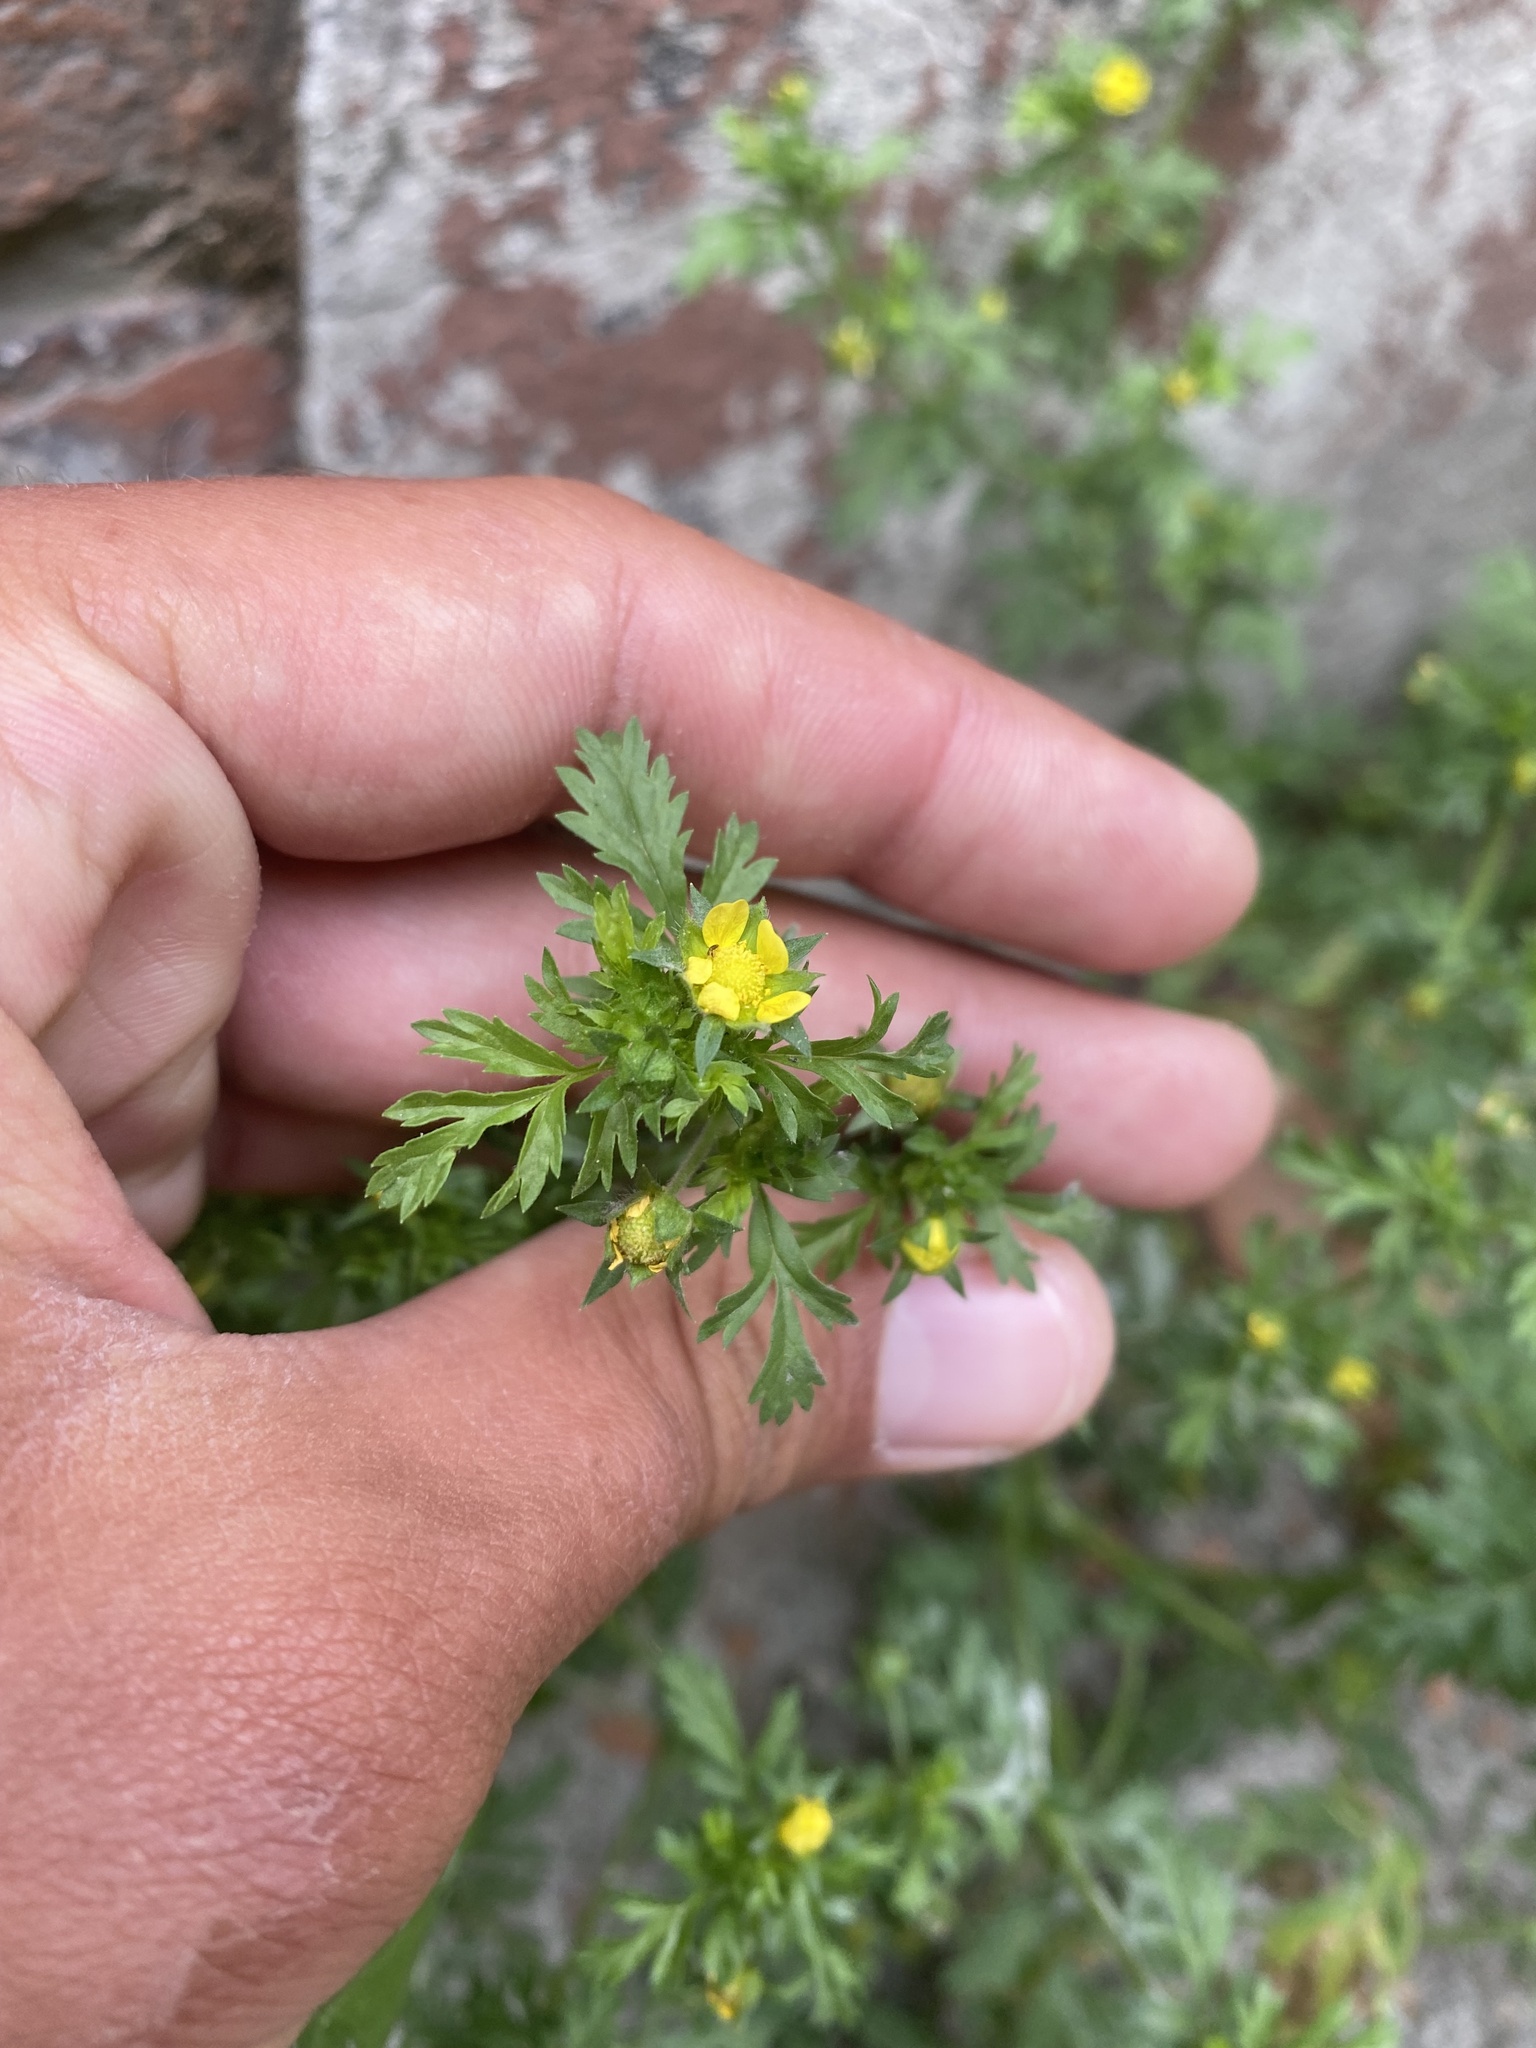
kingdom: Plantae
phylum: Tracheophyta
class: Magnoliopsida
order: Rosales
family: Rosaceae
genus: Potentilla
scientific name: Potentilla supina
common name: Prostrate cinquefoil
